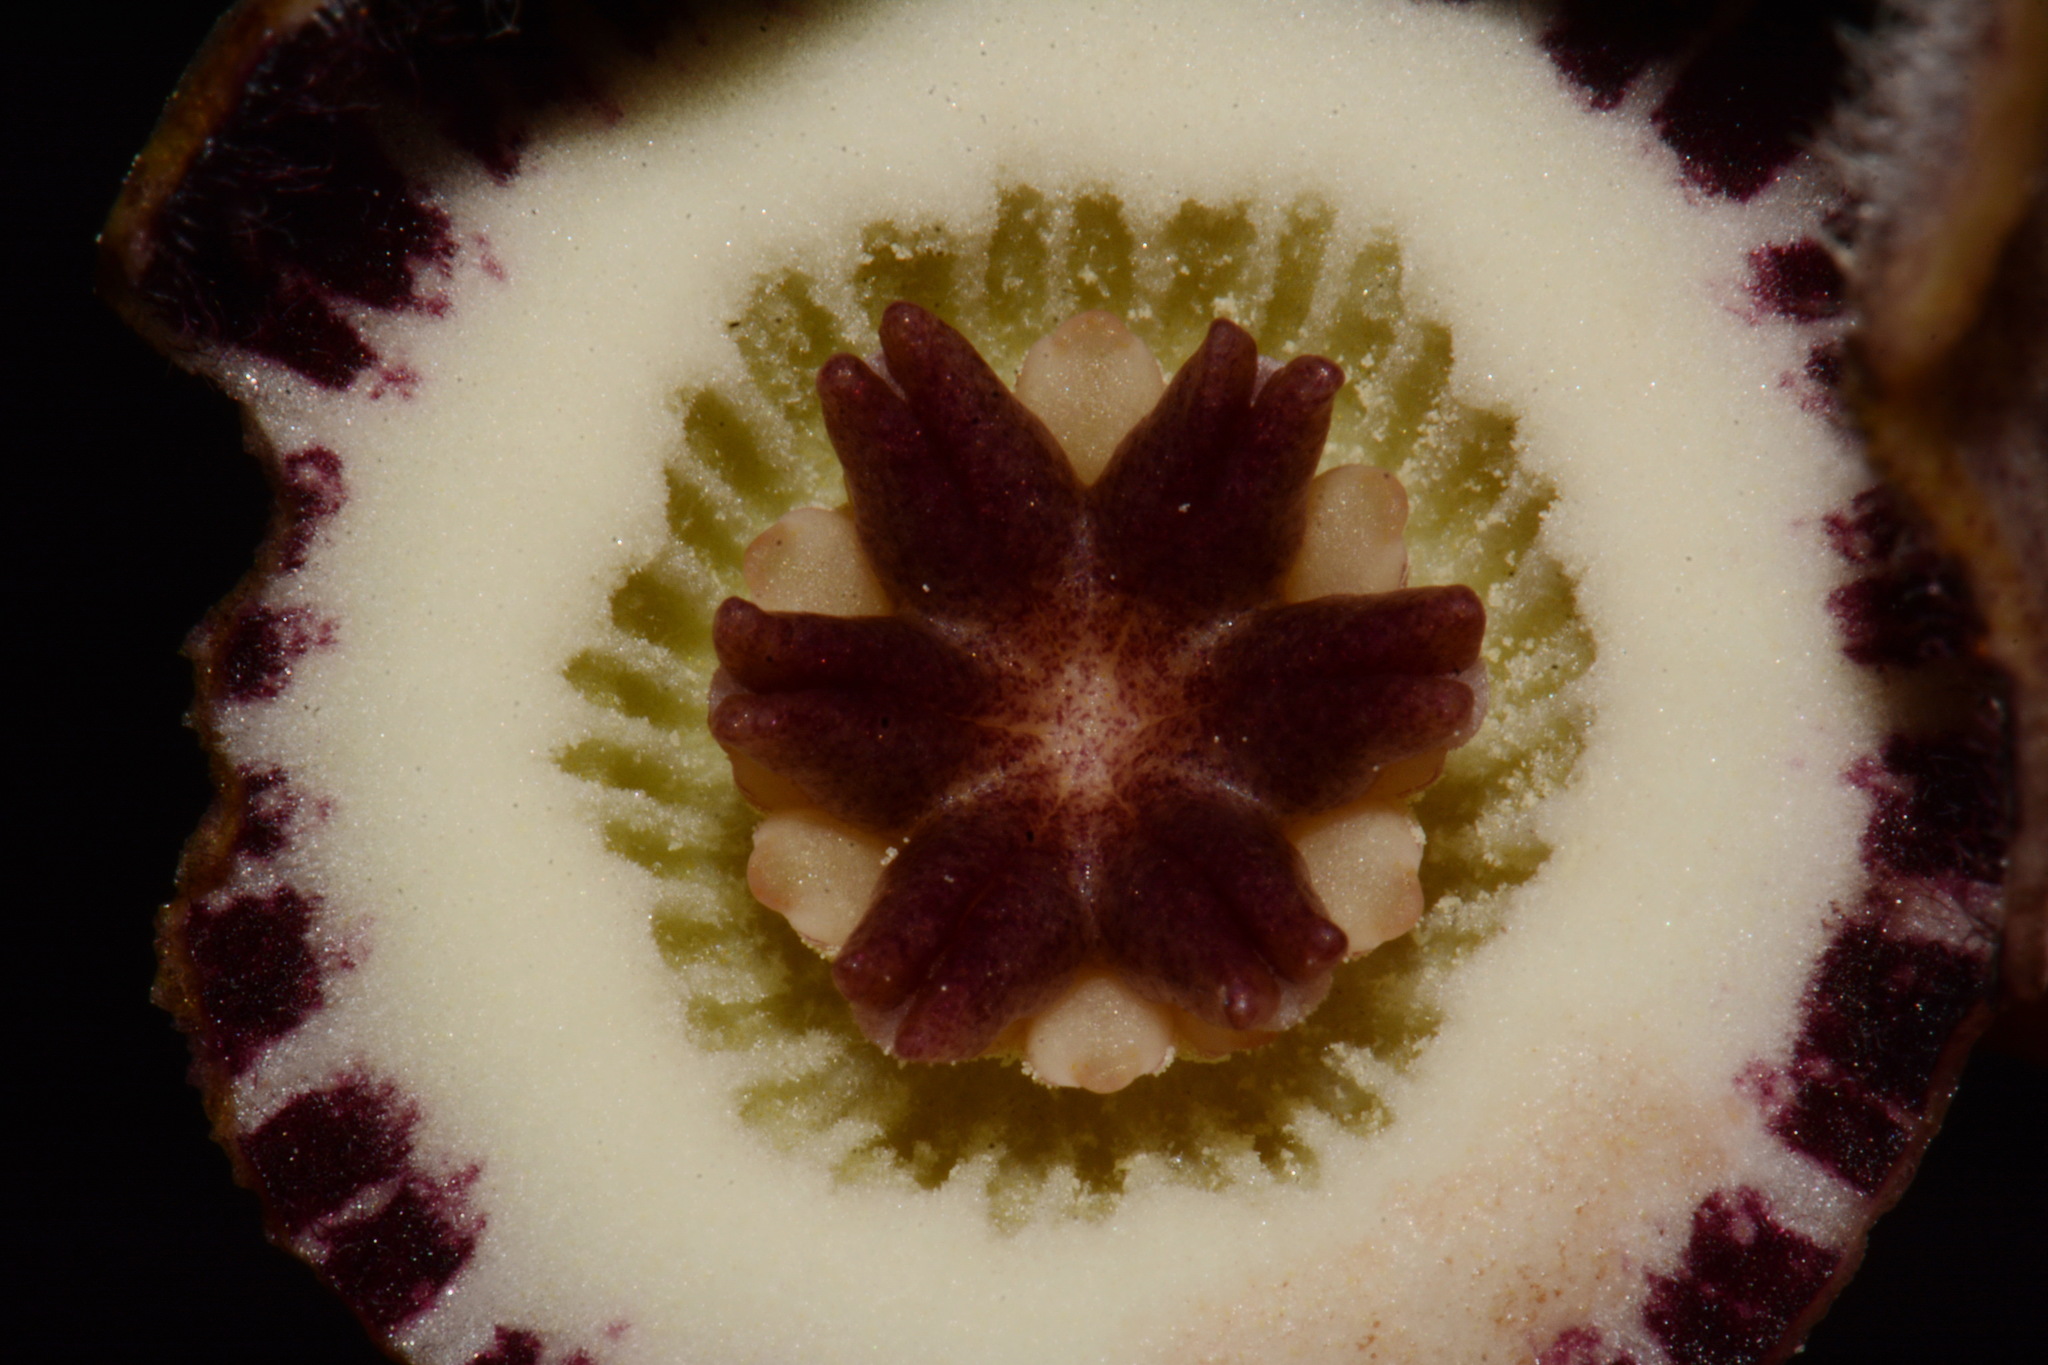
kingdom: Plantae
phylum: Tracheophyta
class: Magnoliopsida
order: Piperales
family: Aristolochiaceae
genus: Hexastylis
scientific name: Hexastylis finzelii
